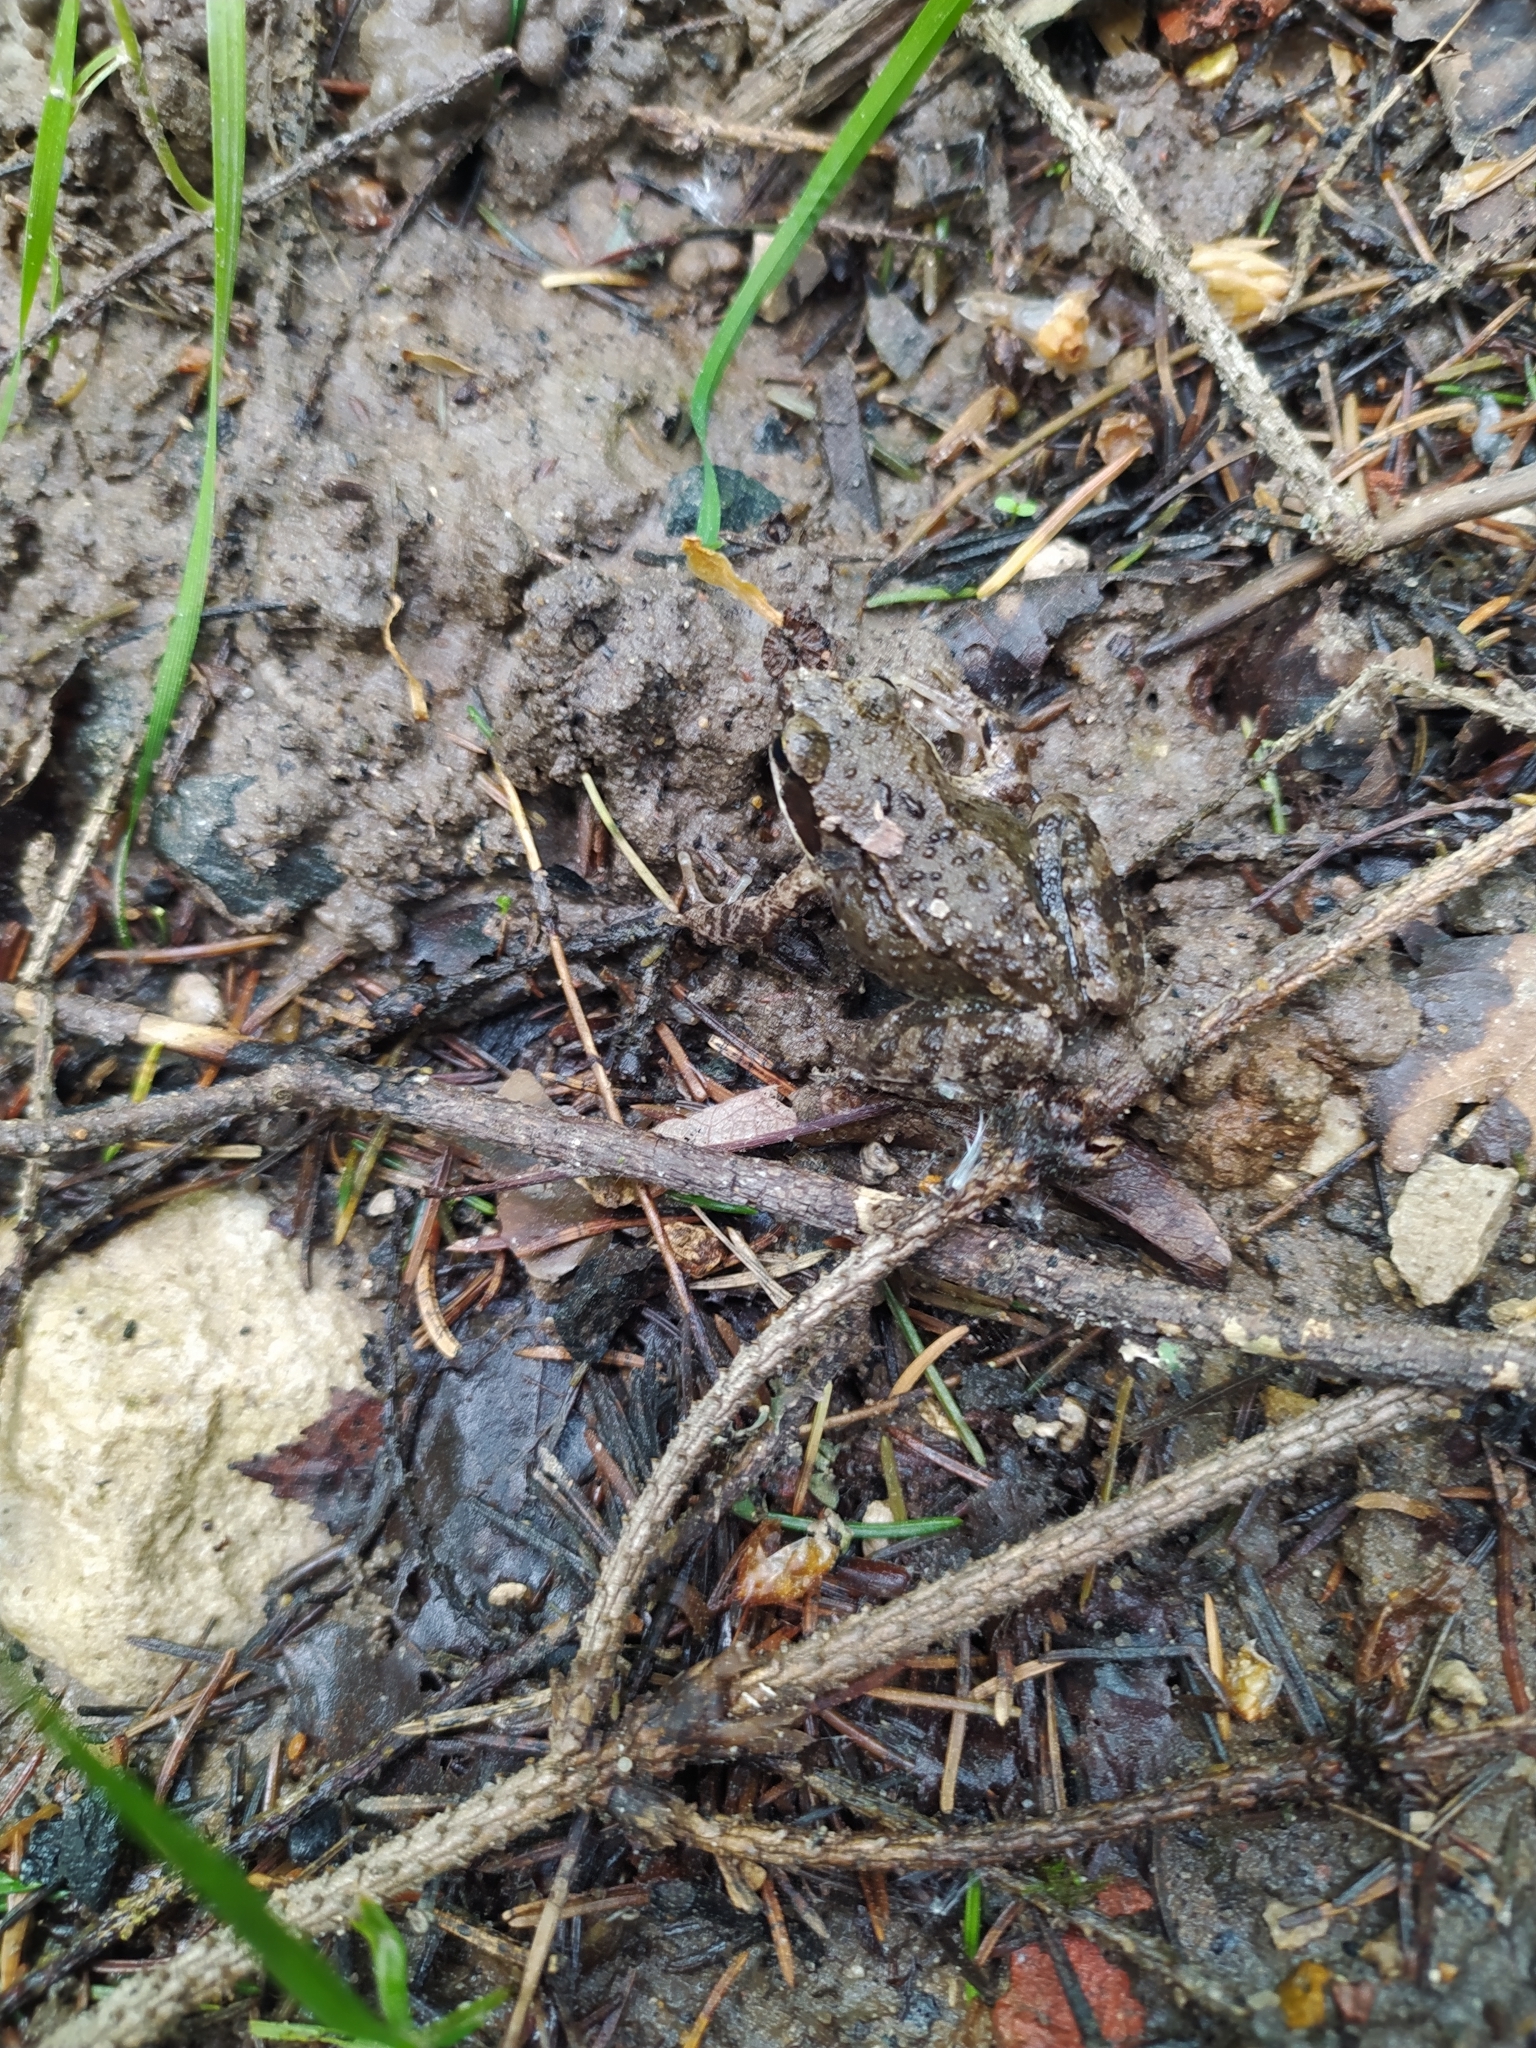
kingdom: Animalia
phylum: Chordata
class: Amphibia
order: Anura
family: Ranidae
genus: Rana
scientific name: Rana arvalis
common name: Moor frog
